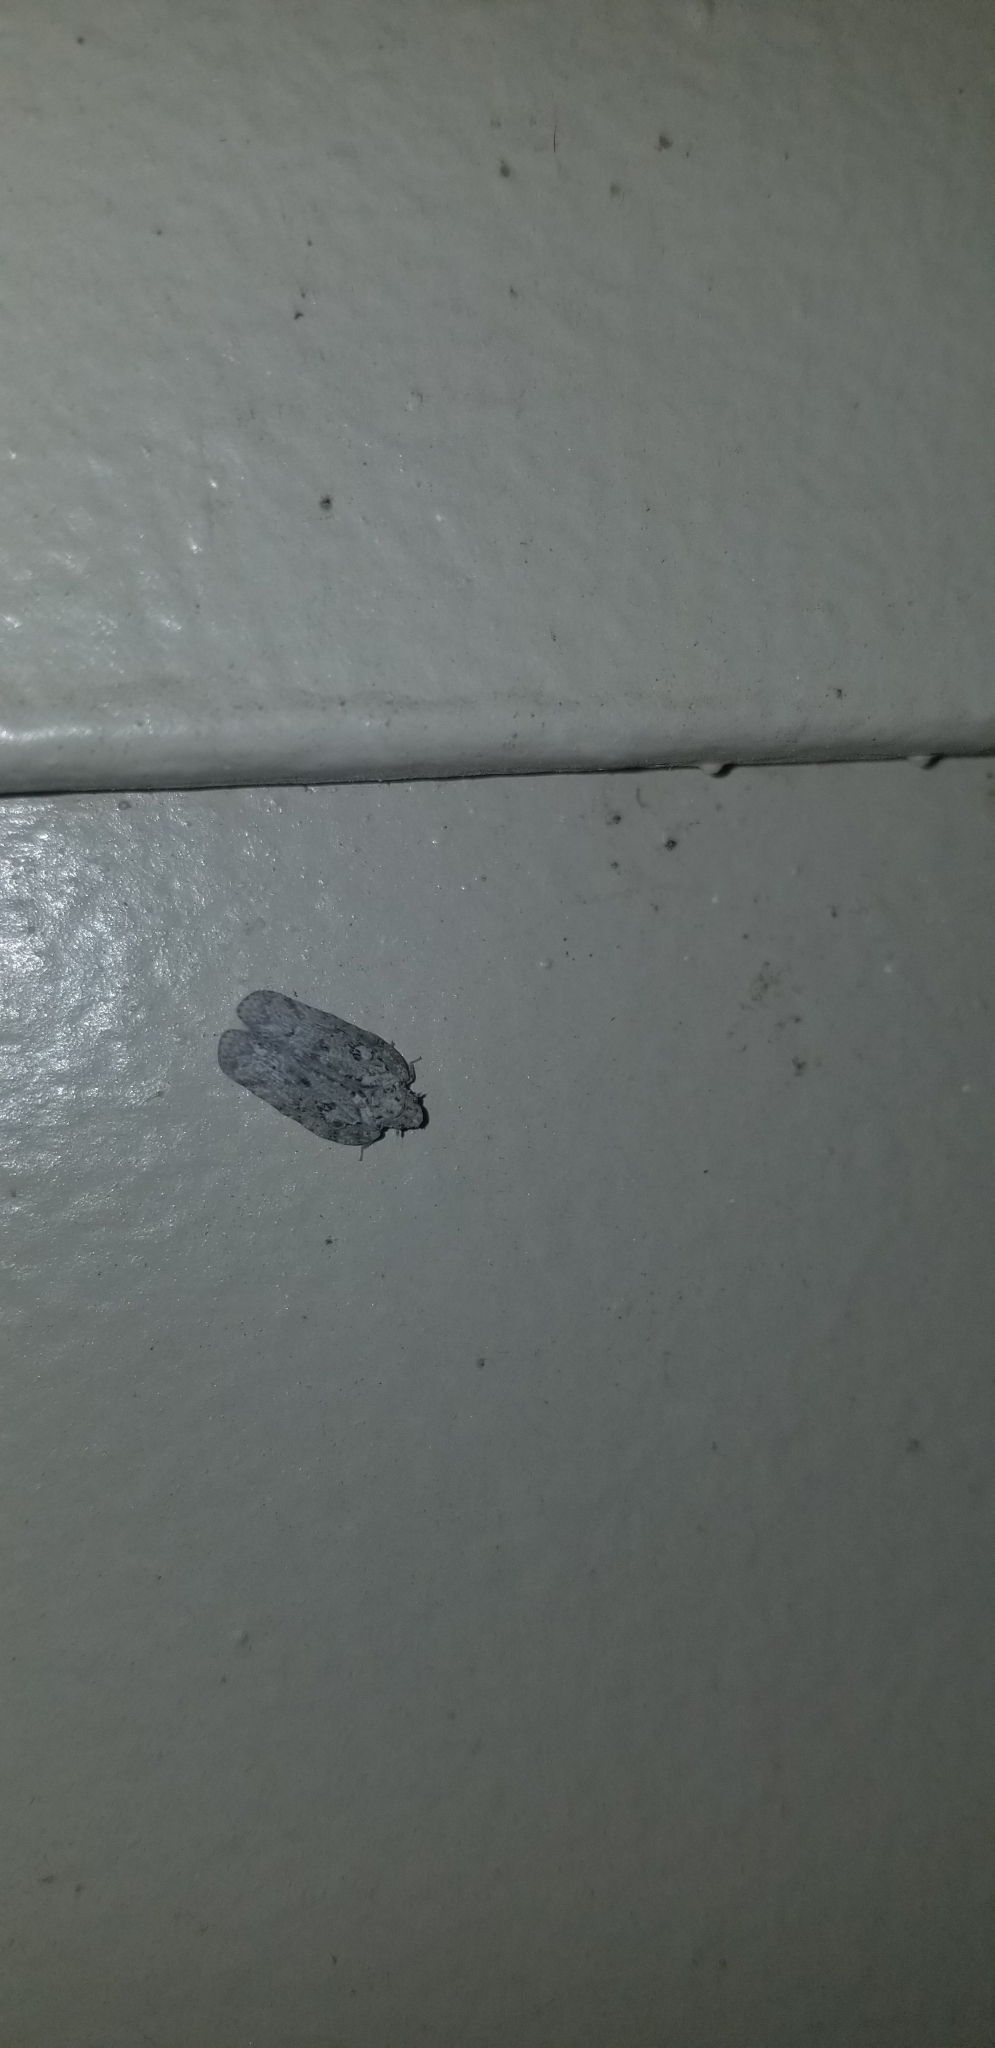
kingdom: Animalia
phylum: Arthropoda
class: Insecta
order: Hemiptera
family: Flatidae
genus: Flatoidinus
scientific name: Flatoidinus punctatus
